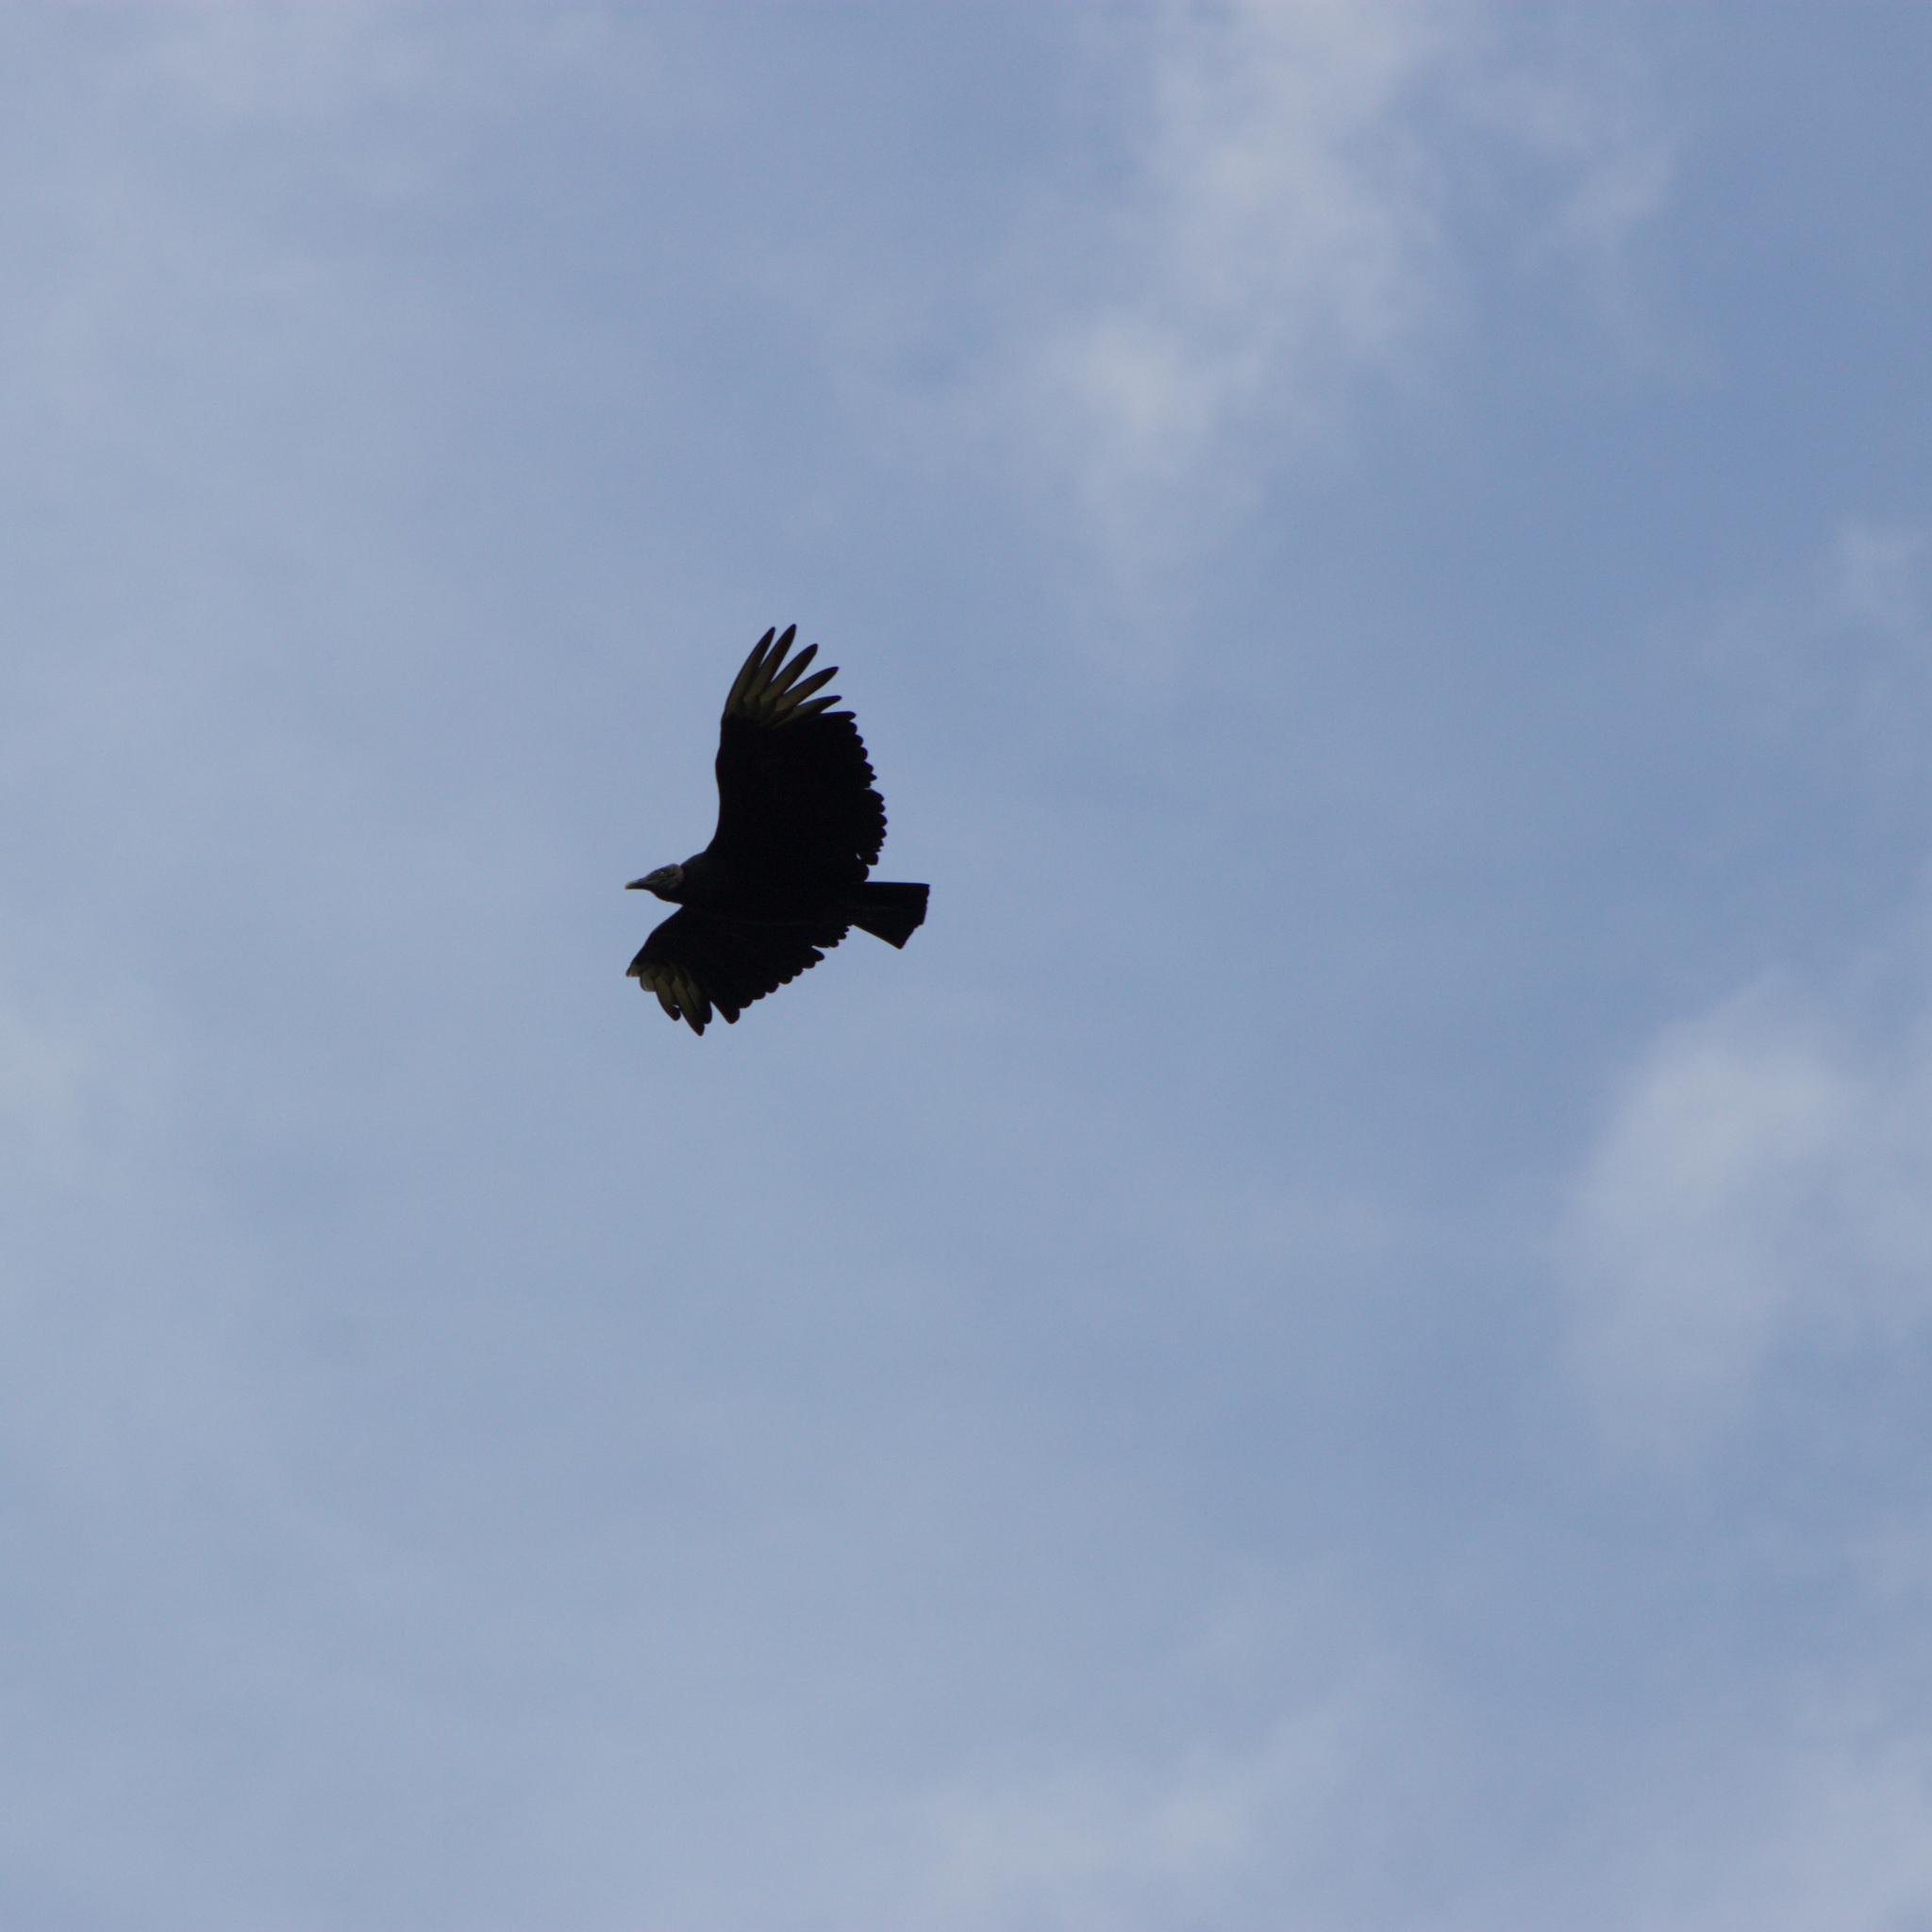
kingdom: Animalia
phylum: Chordata
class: Aves
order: Accipitriformes
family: Cathartidae
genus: Coragyps
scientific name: Coragyps atratus
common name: Black vulture
